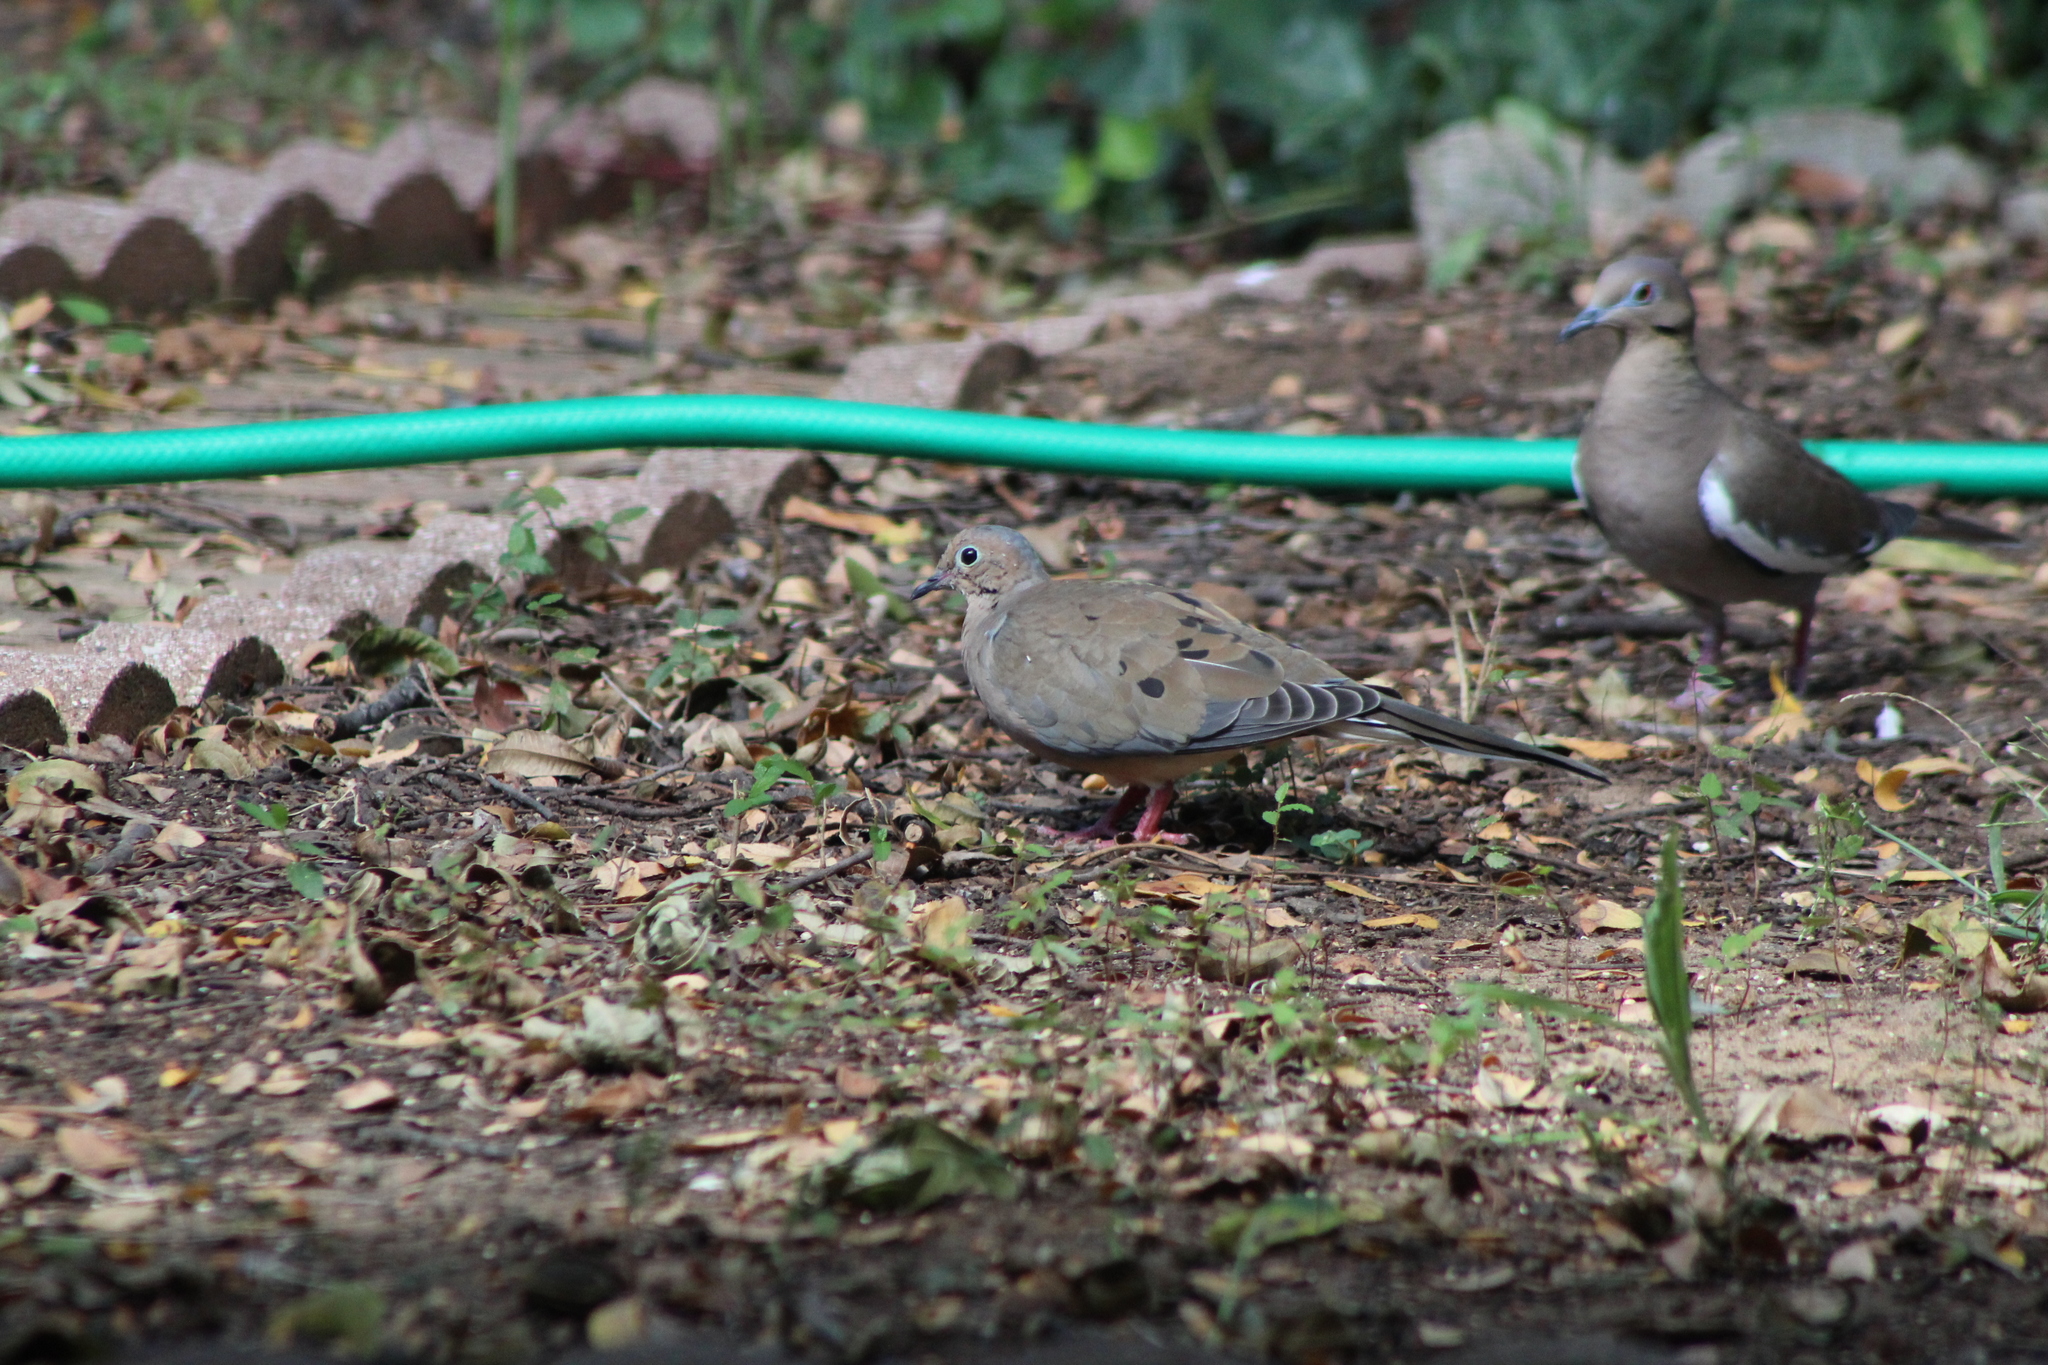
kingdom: Animalia
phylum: Chordata
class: Aves
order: Columbiformes
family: Columbidae
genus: Zenaida
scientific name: Zenaida macroura
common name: Mourning dove
